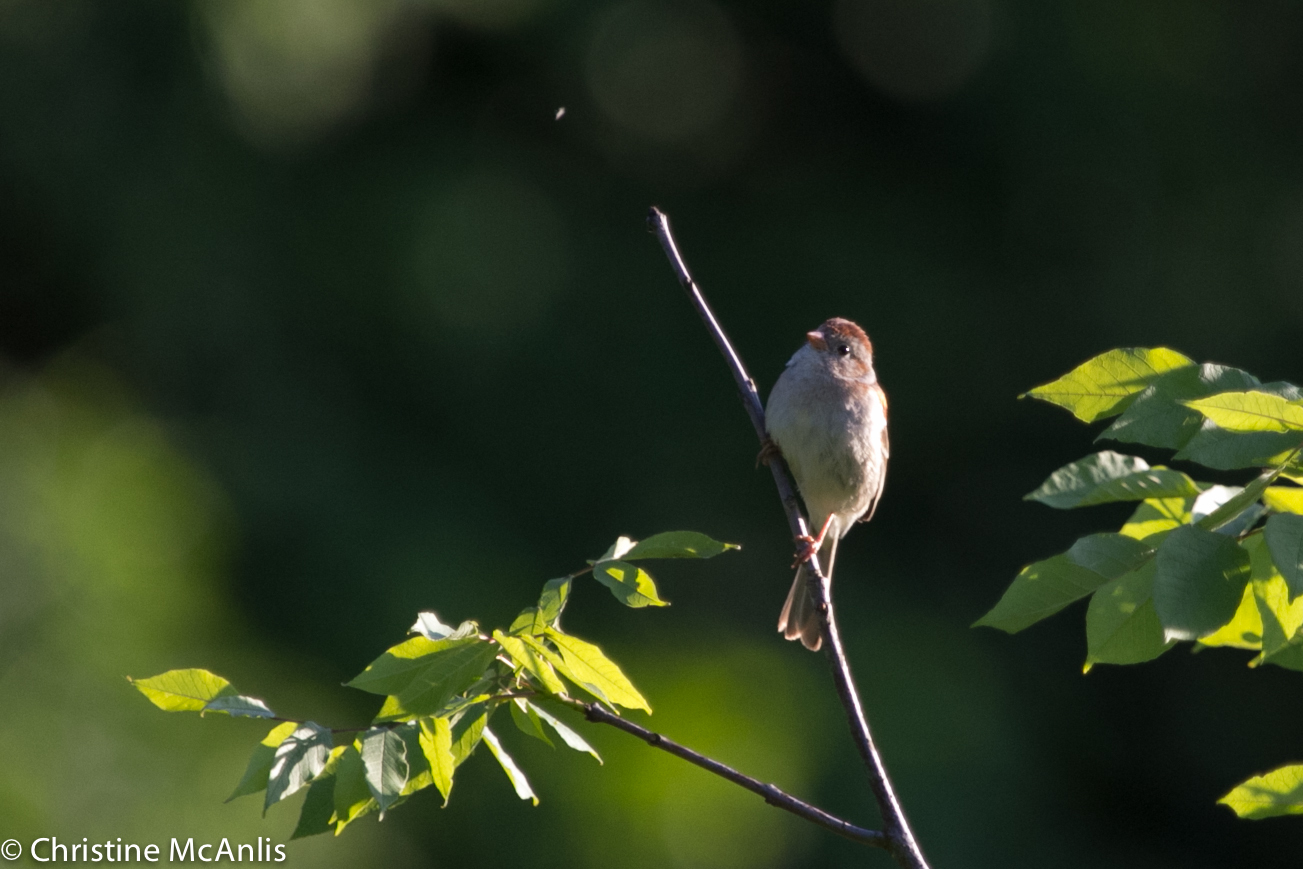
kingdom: Animalia
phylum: Chordata
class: Aves
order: Passeriformes
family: Passerellidae
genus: Spizella
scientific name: Spizella pusilla
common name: Field sparrow
